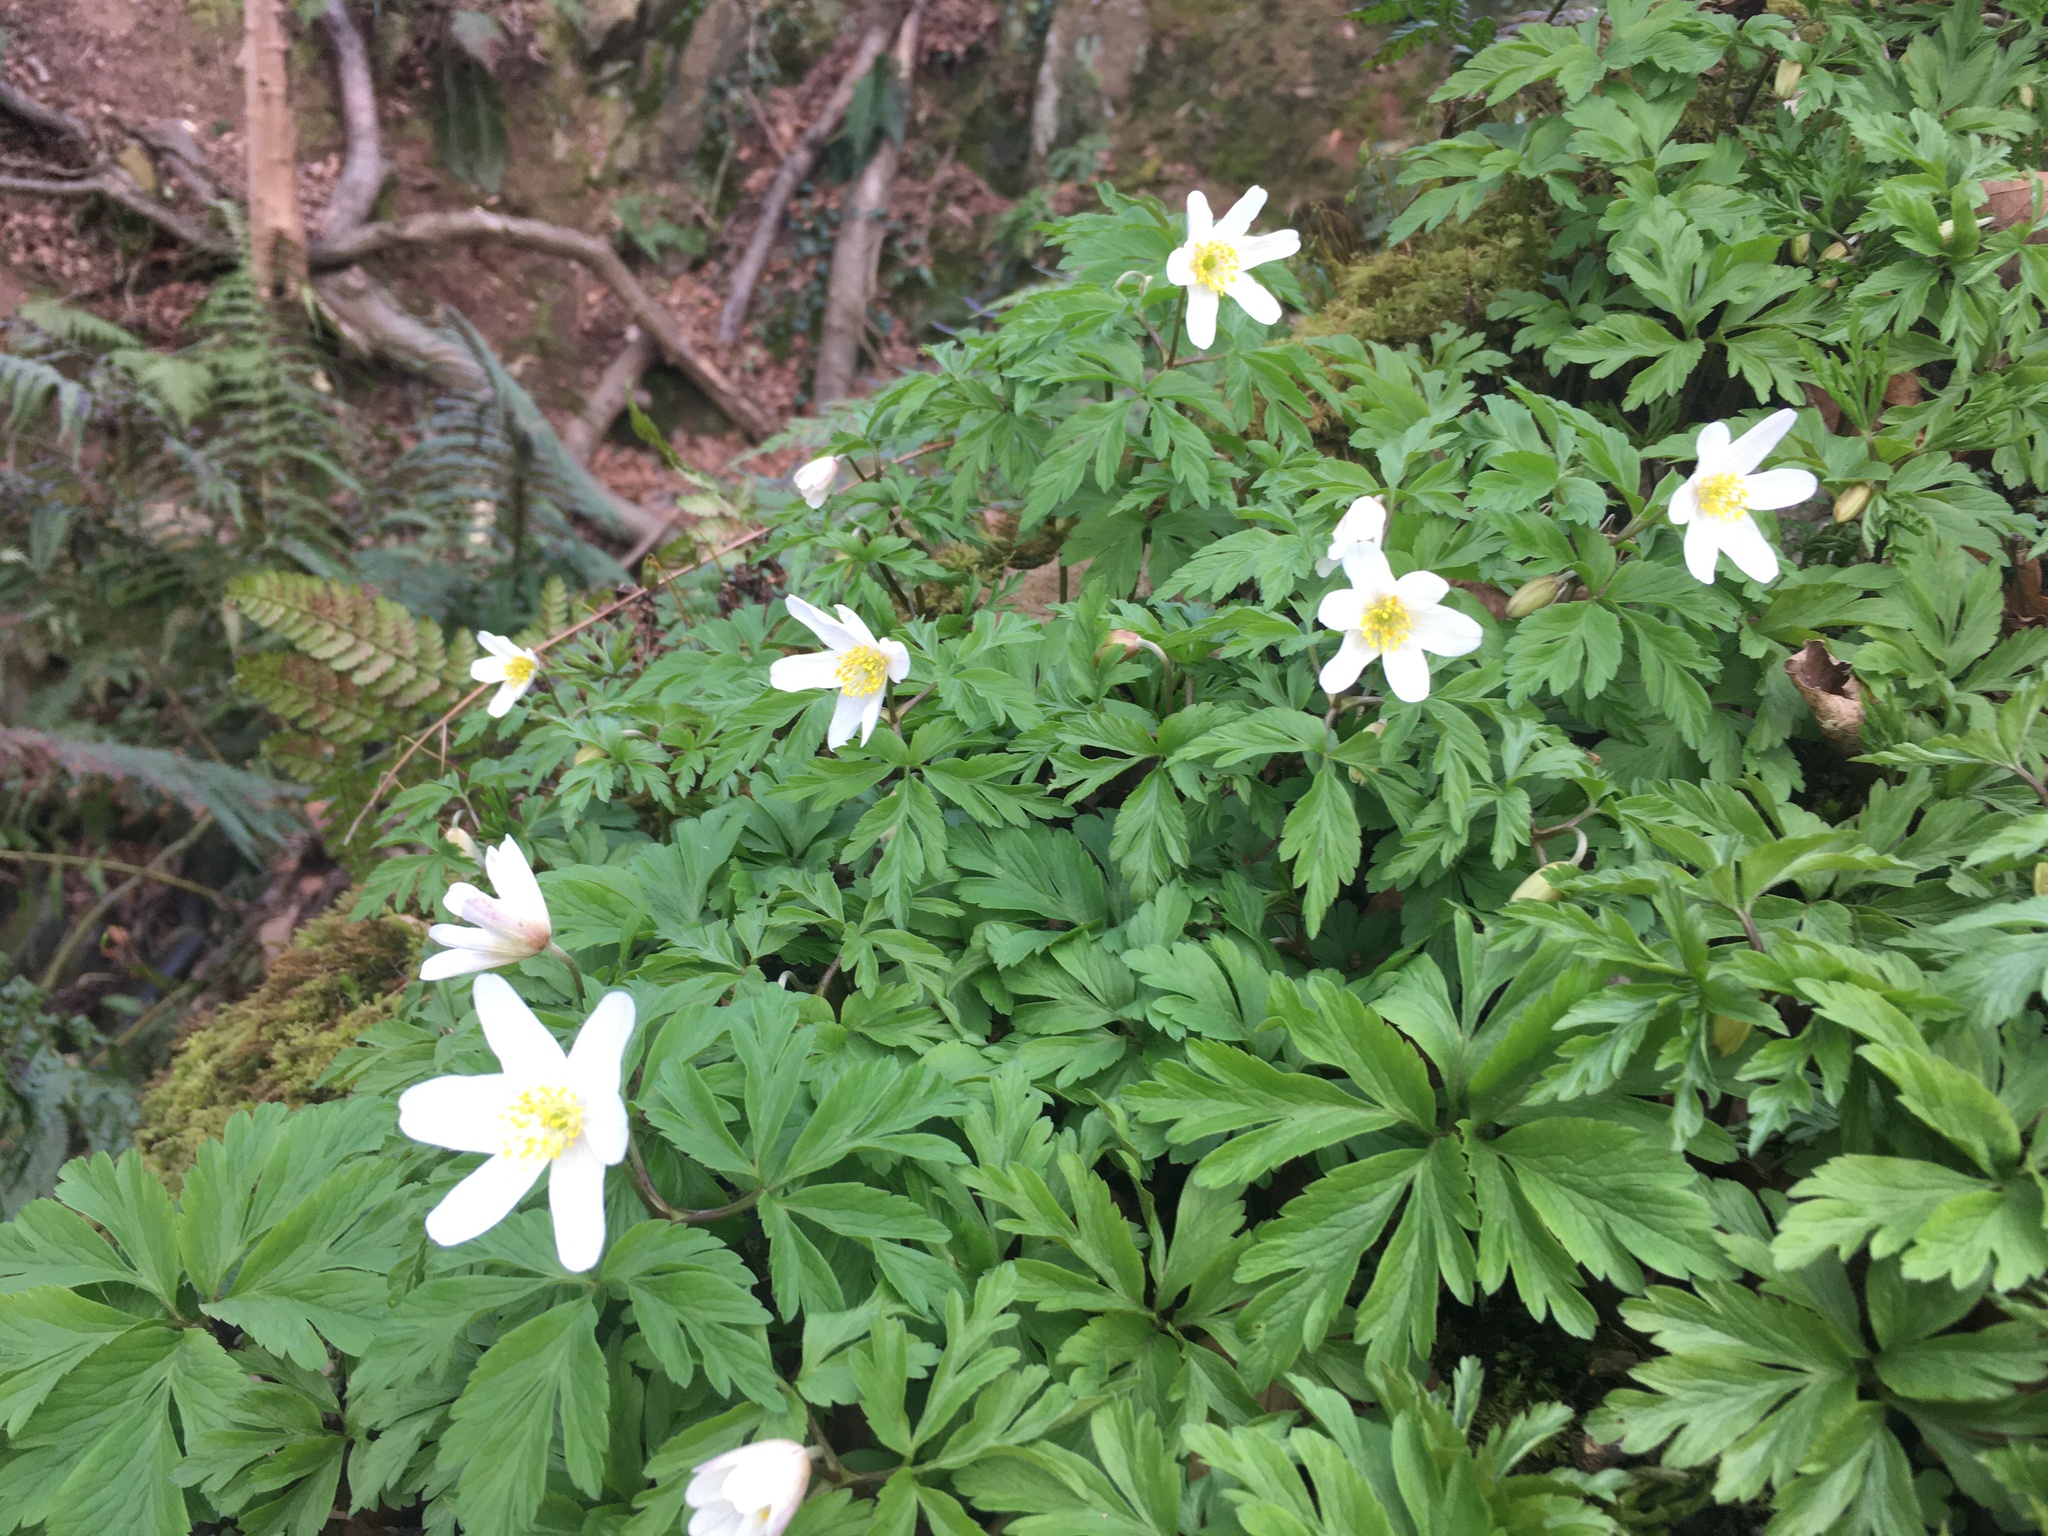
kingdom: Plantae
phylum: Tracheophyta
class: Magnoliopsida
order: Ranunculales
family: Ranunculaceae
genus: Anemone
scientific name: Anemone nemorosa
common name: Wood anemone
